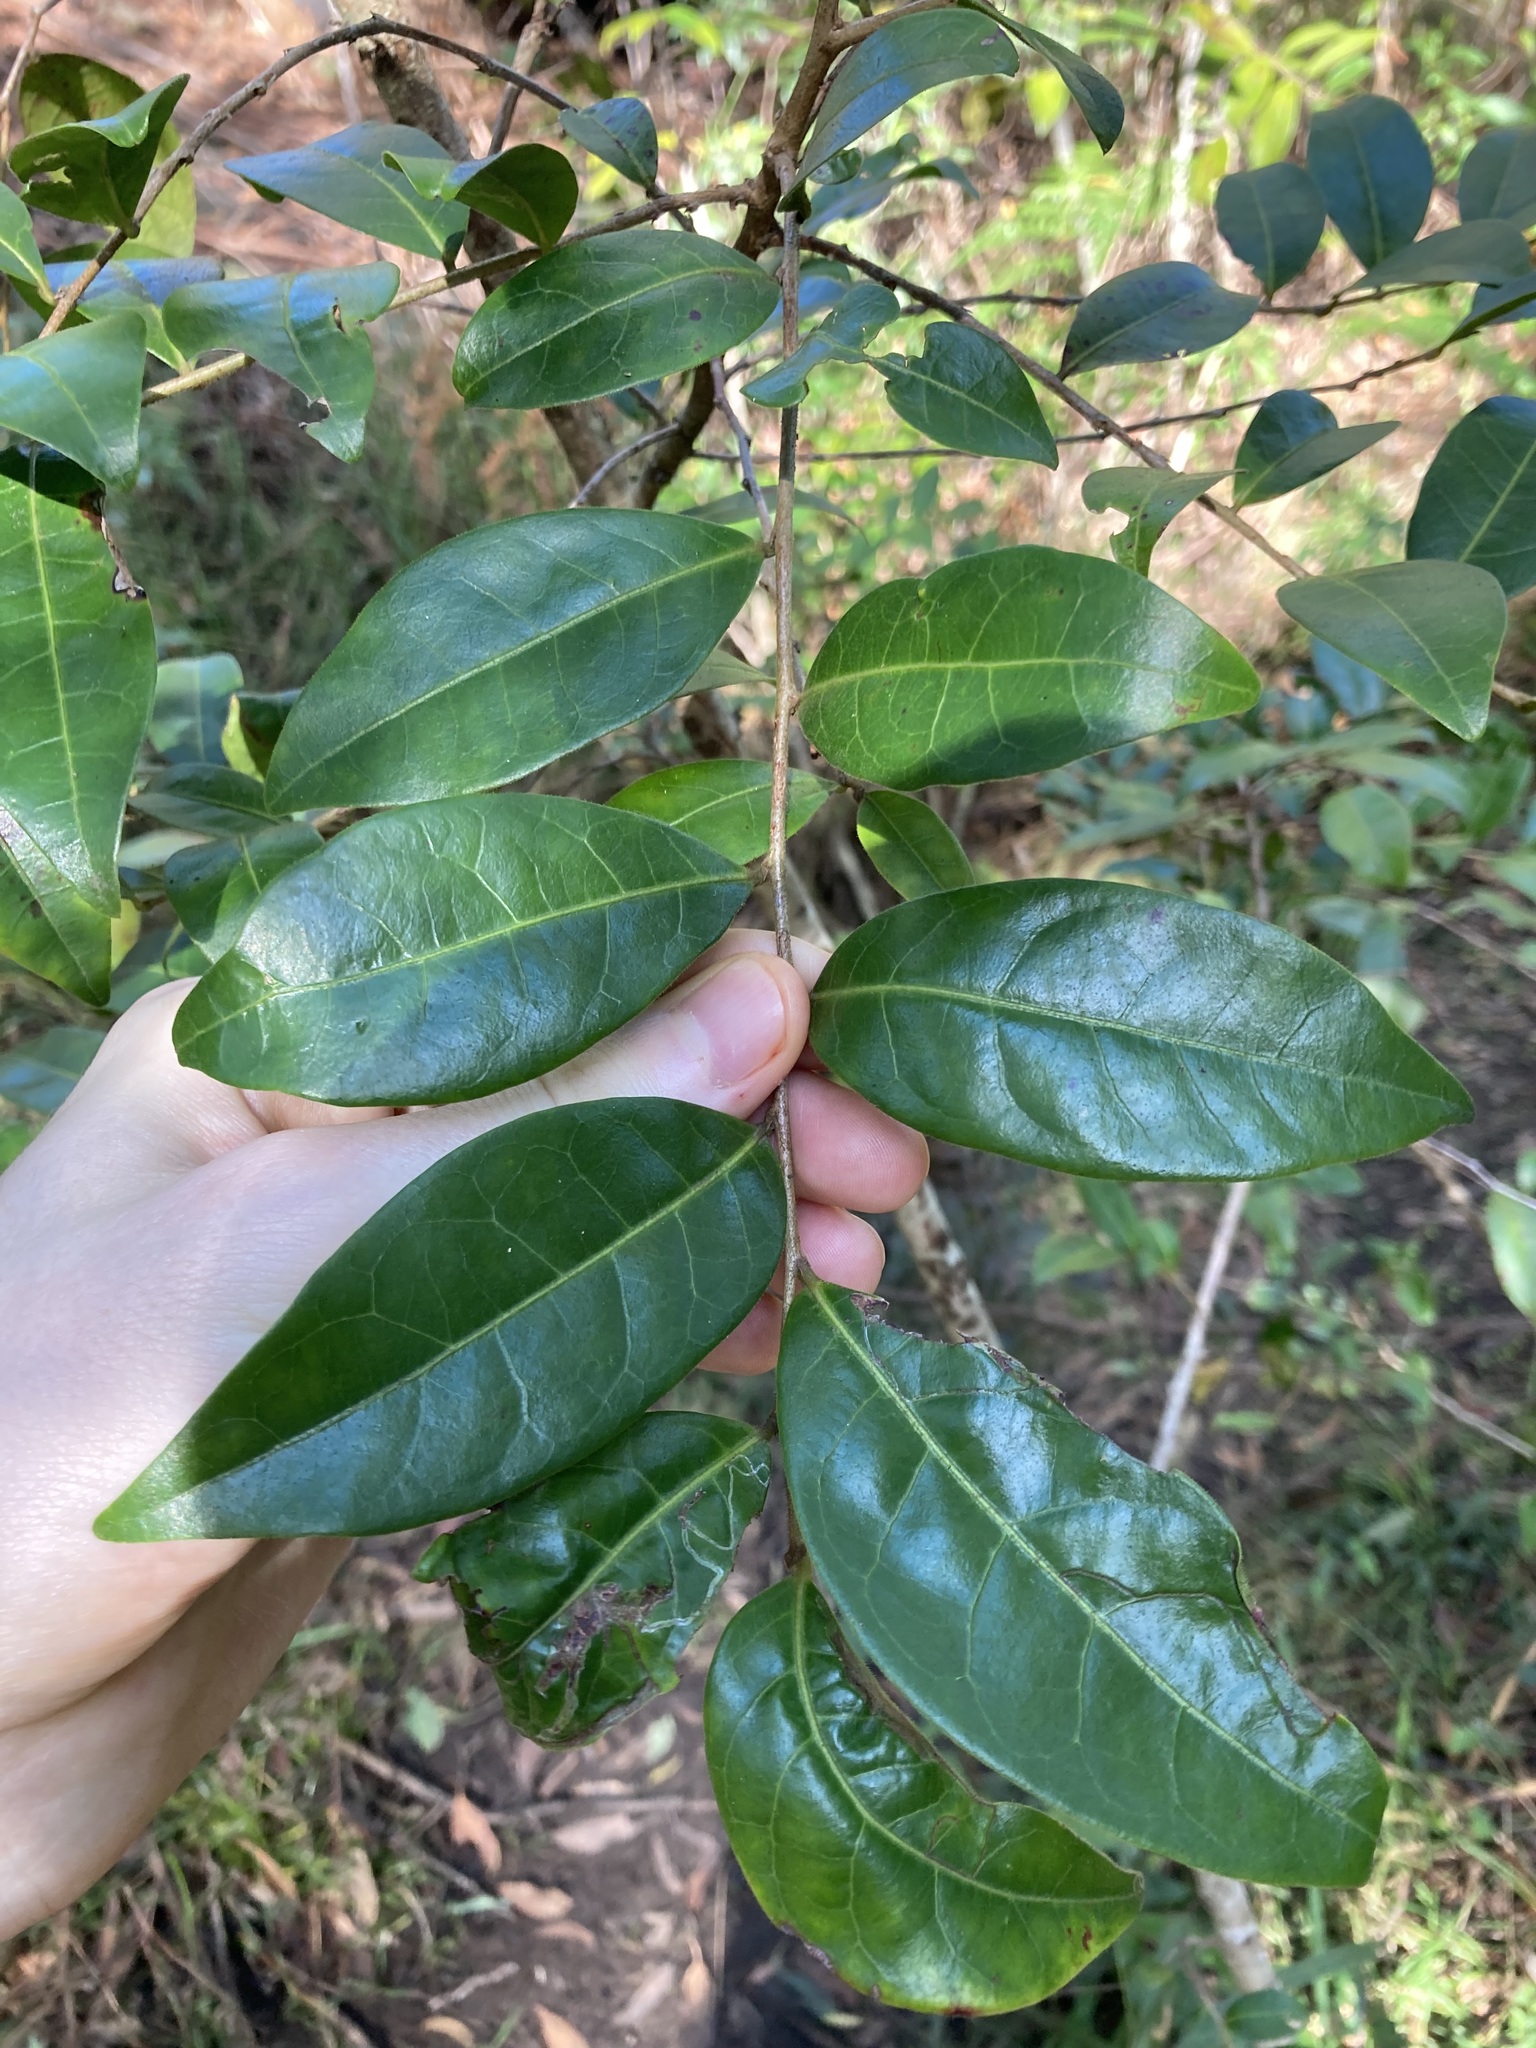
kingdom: Plantae
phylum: Tracheophyta
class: Magnoliopsida
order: Malpighiales
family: Phyllanthaceae
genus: Glochidion
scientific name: Glochidion ferdinandi
